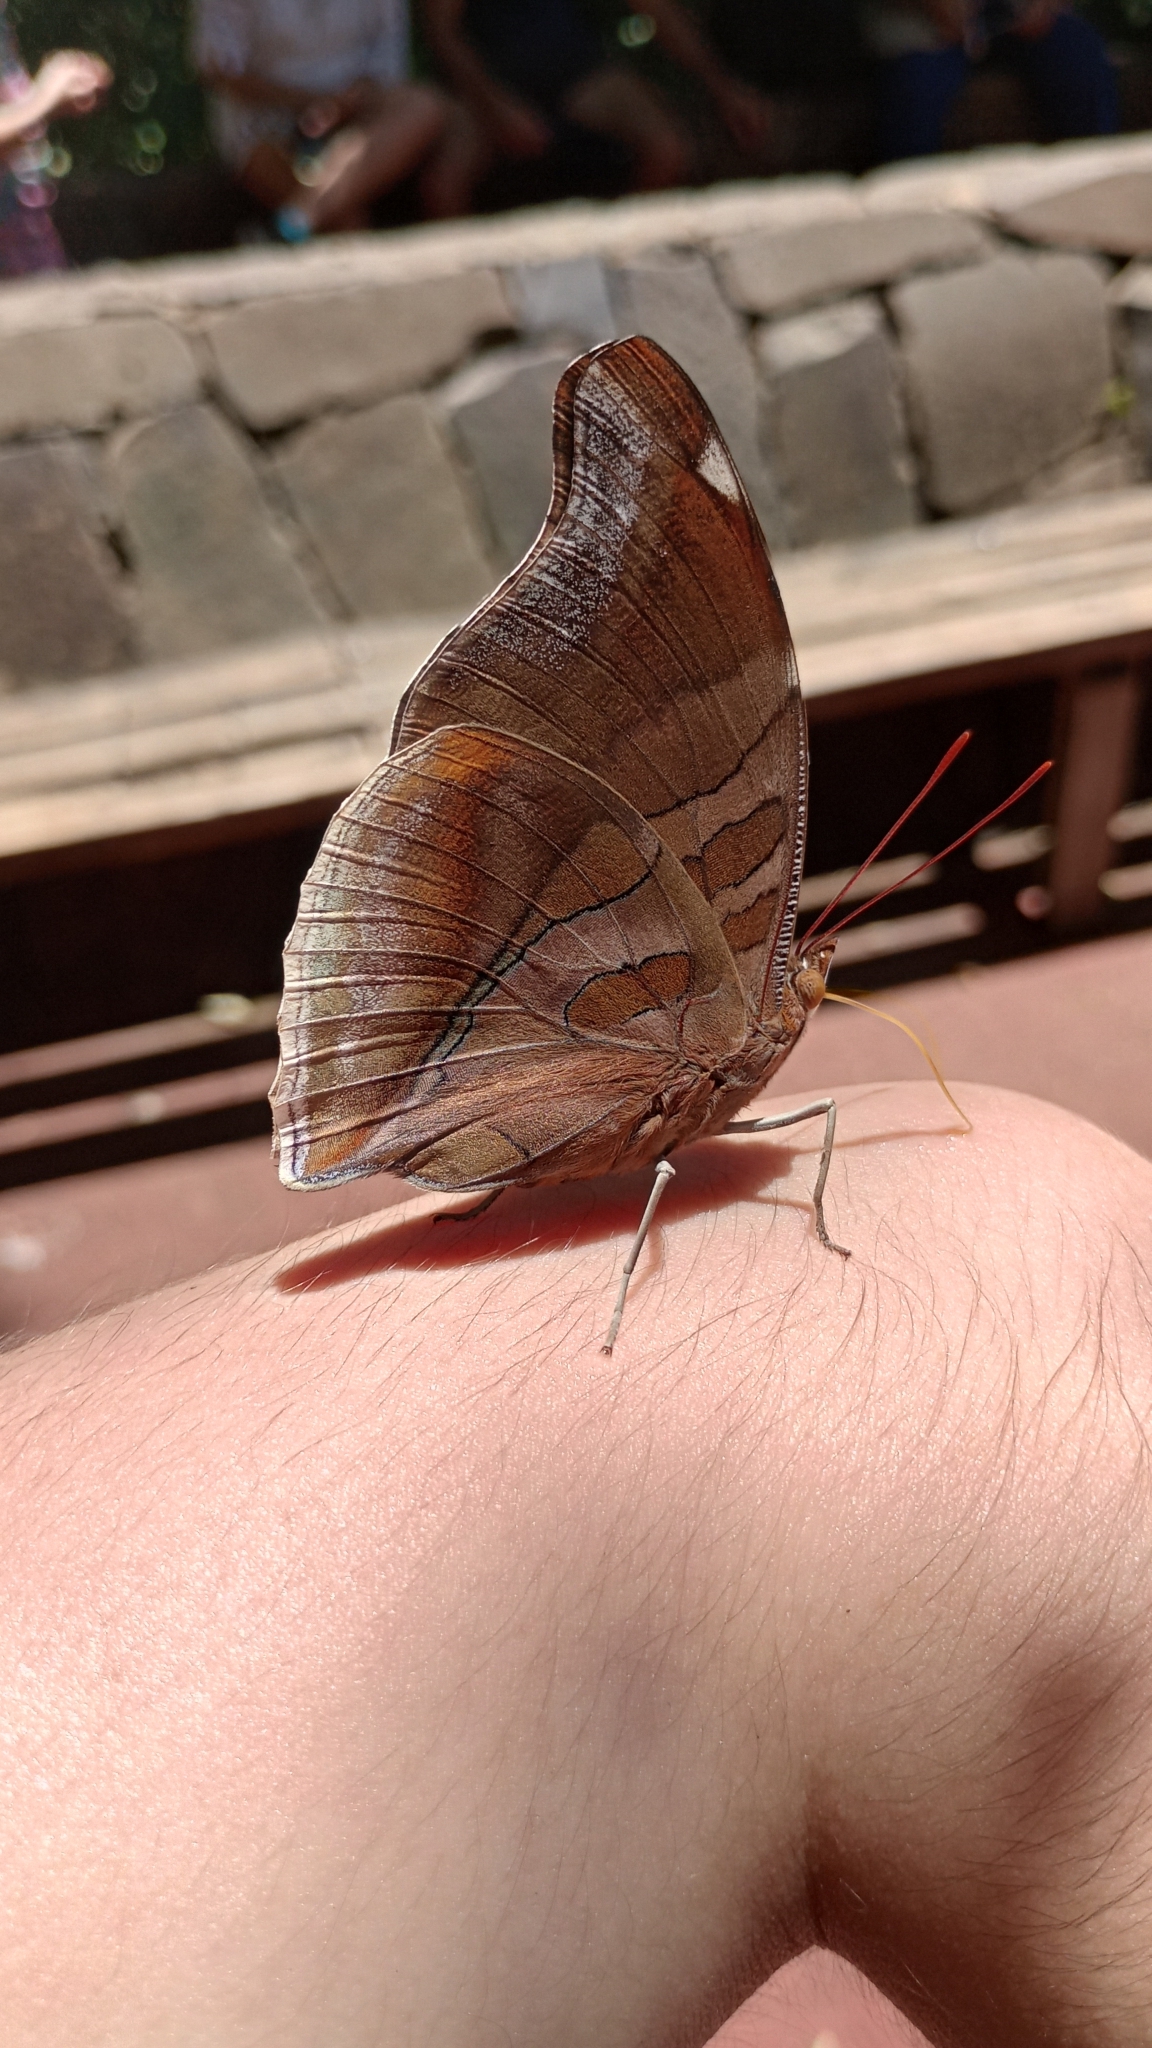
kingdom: Animalia
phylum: Arthropoda
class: Insecta
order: Lepidoptera
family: Nymphalidae
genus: Historis
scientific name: Historis odius
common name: Orion cecropian
